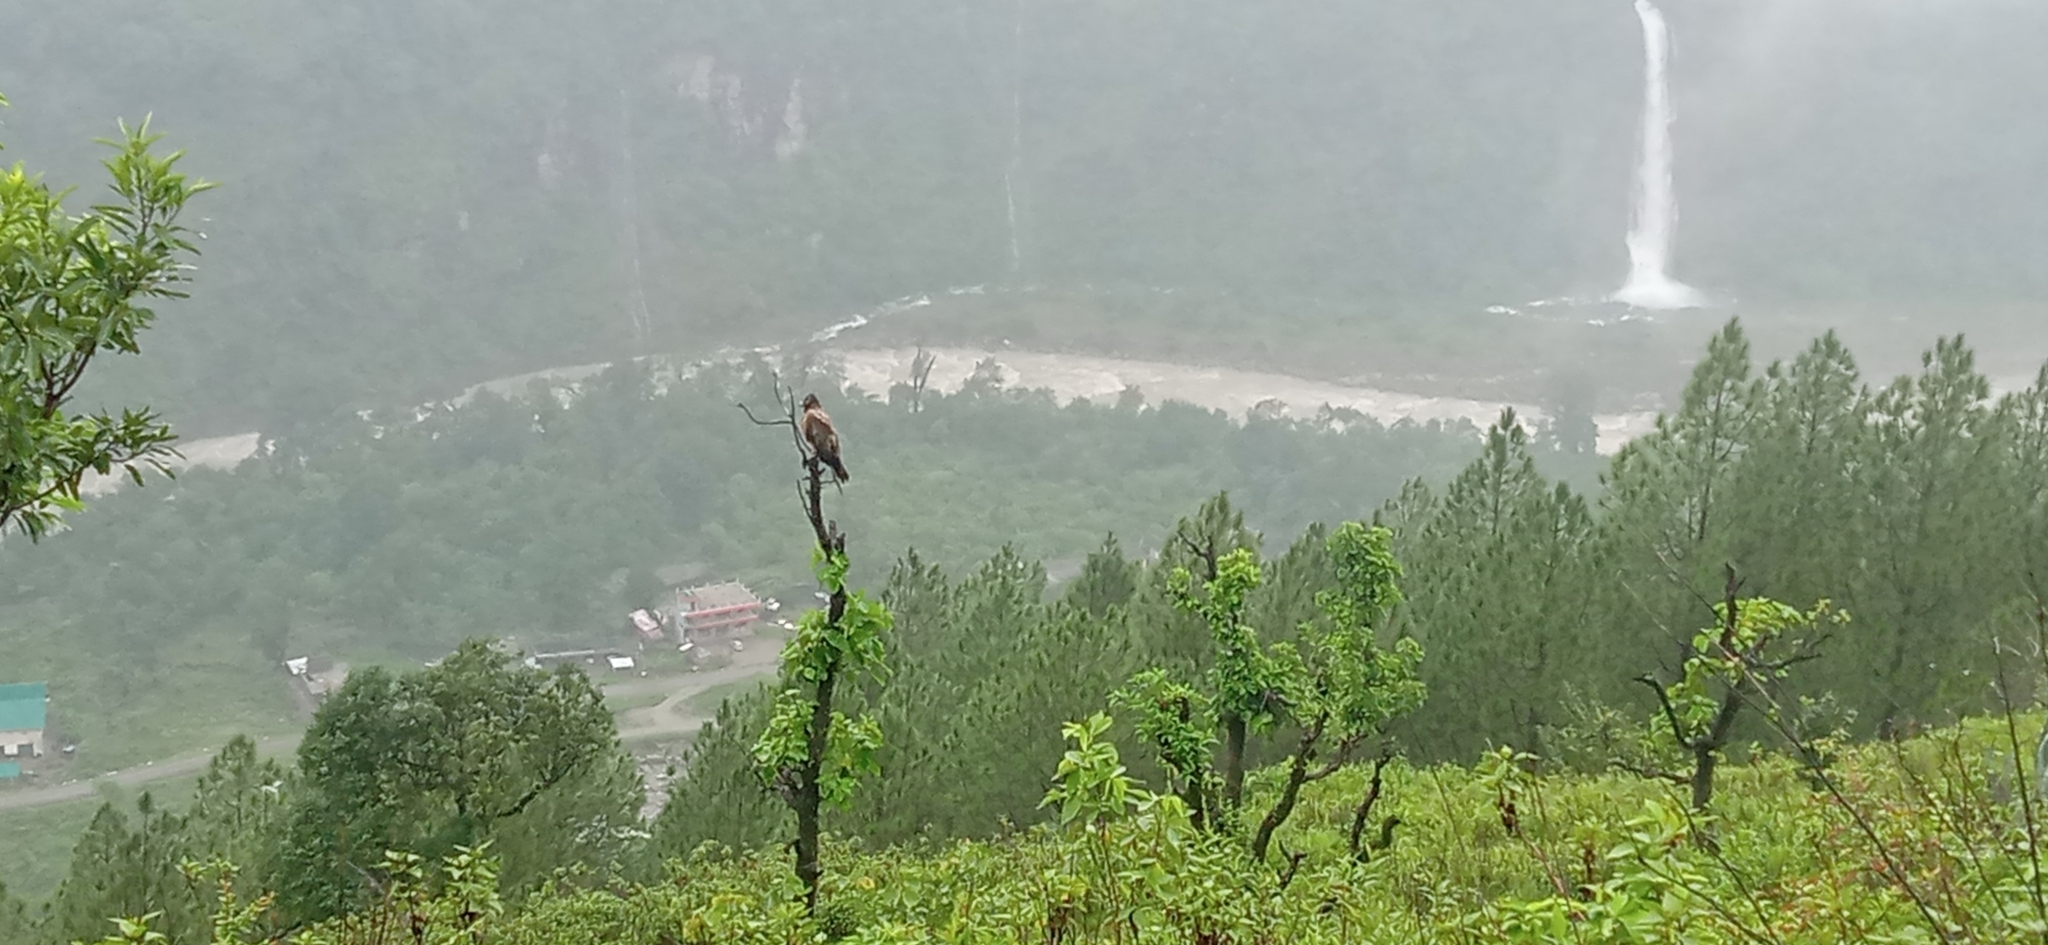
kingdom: Animalia
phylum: Chordata
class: Aves
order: Accipitriformes
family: Accipitridae
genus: Gypaetus
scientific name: Gypaetus barbatus
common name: Bearded vulture
